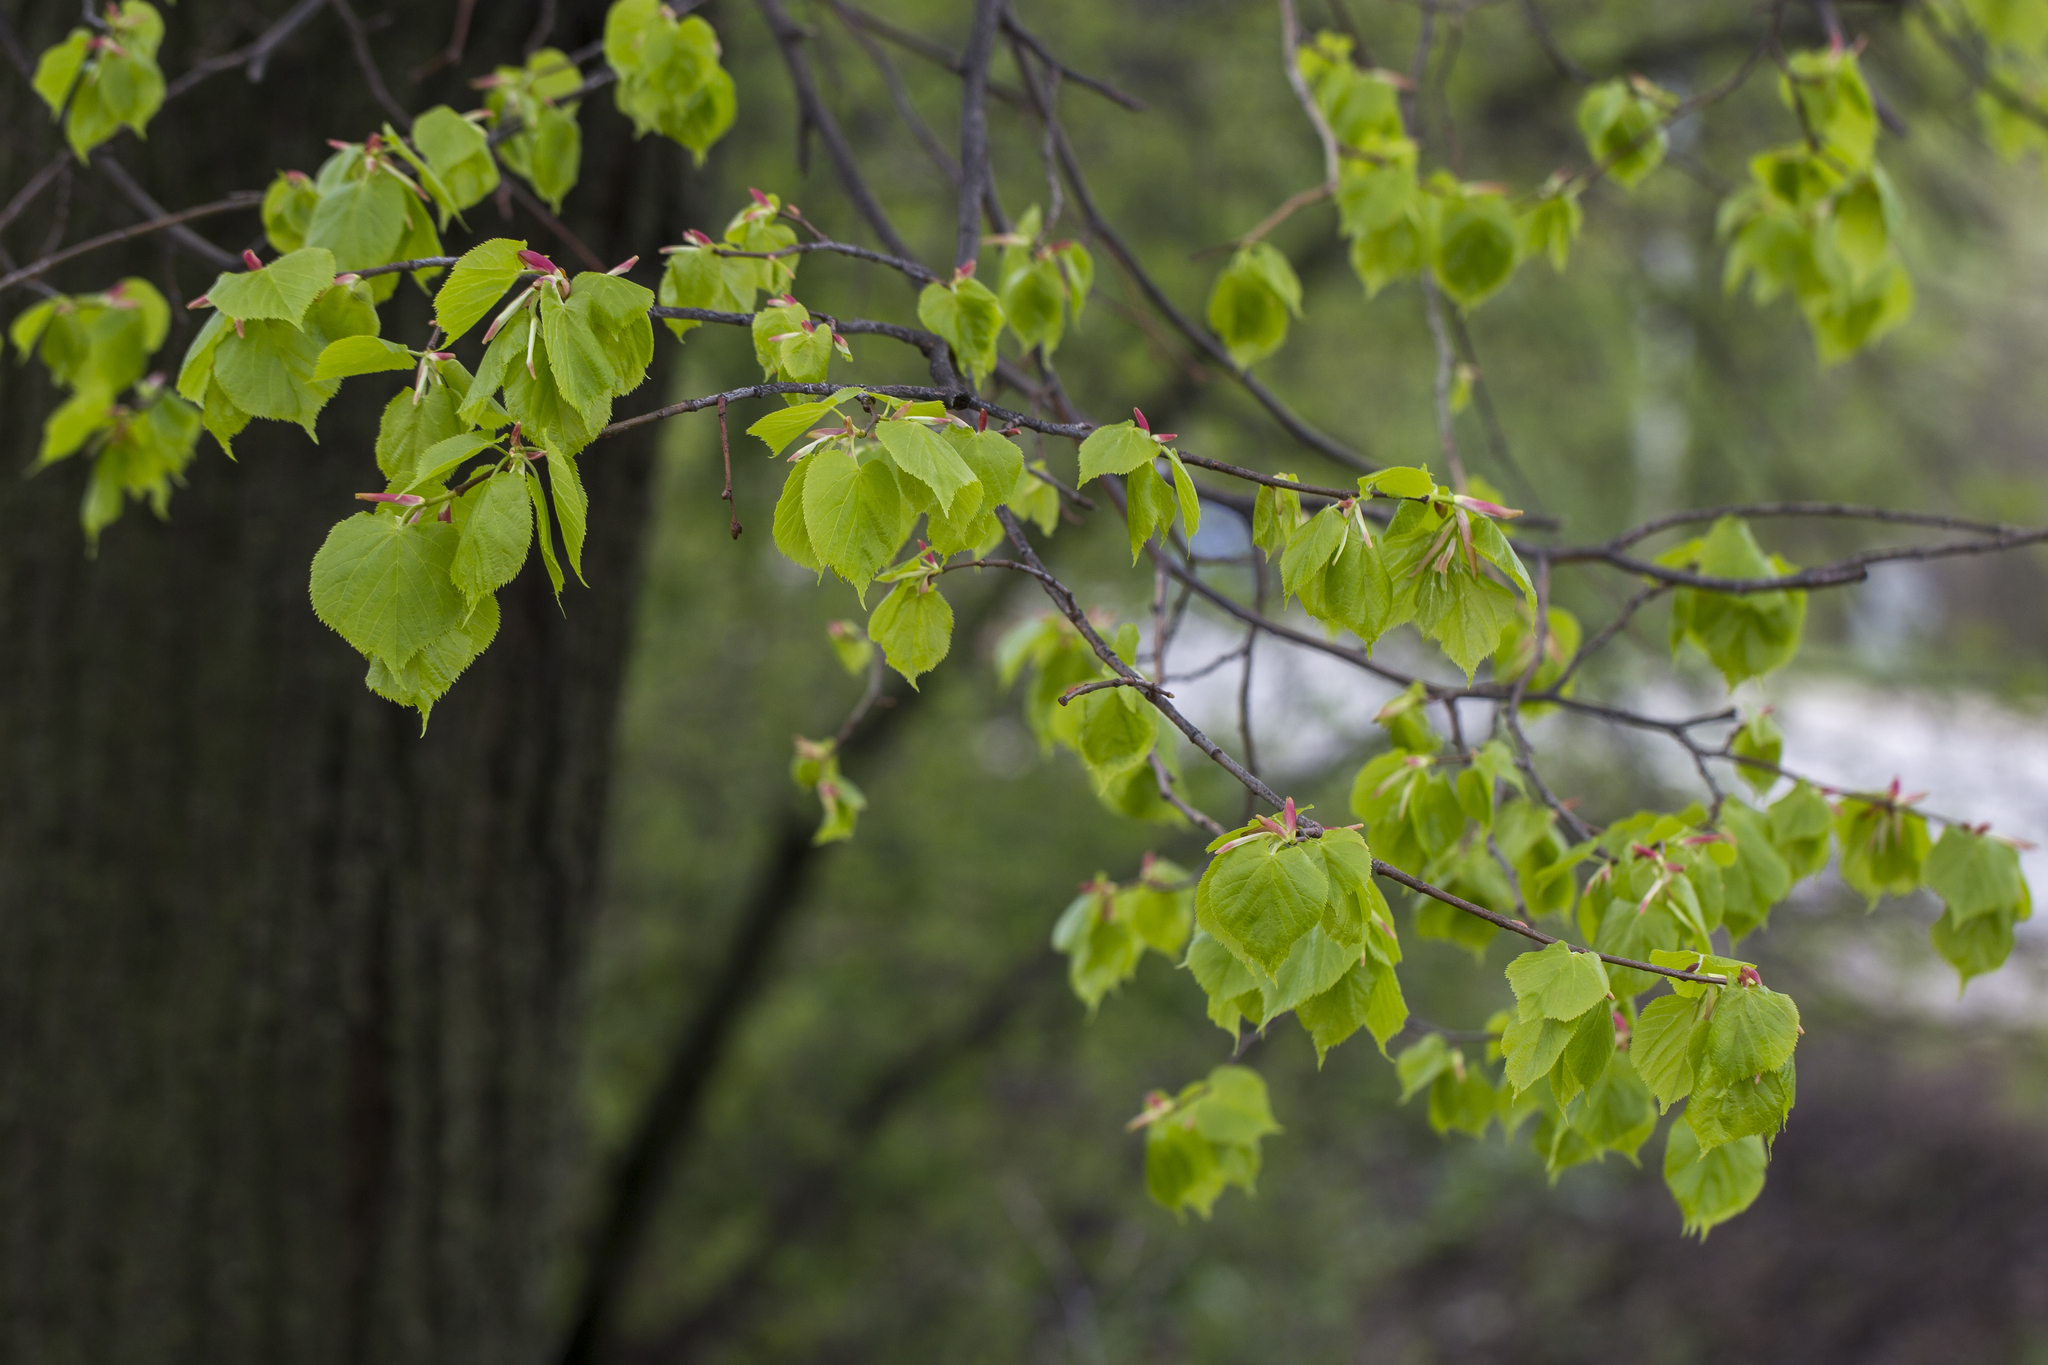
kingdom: Plantae
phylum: Tracheophyta
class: Magnoliopsida
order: Malvales
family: Malvaceae
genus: Tilia
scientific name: Tilia cordata
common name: Small-leaved lime
